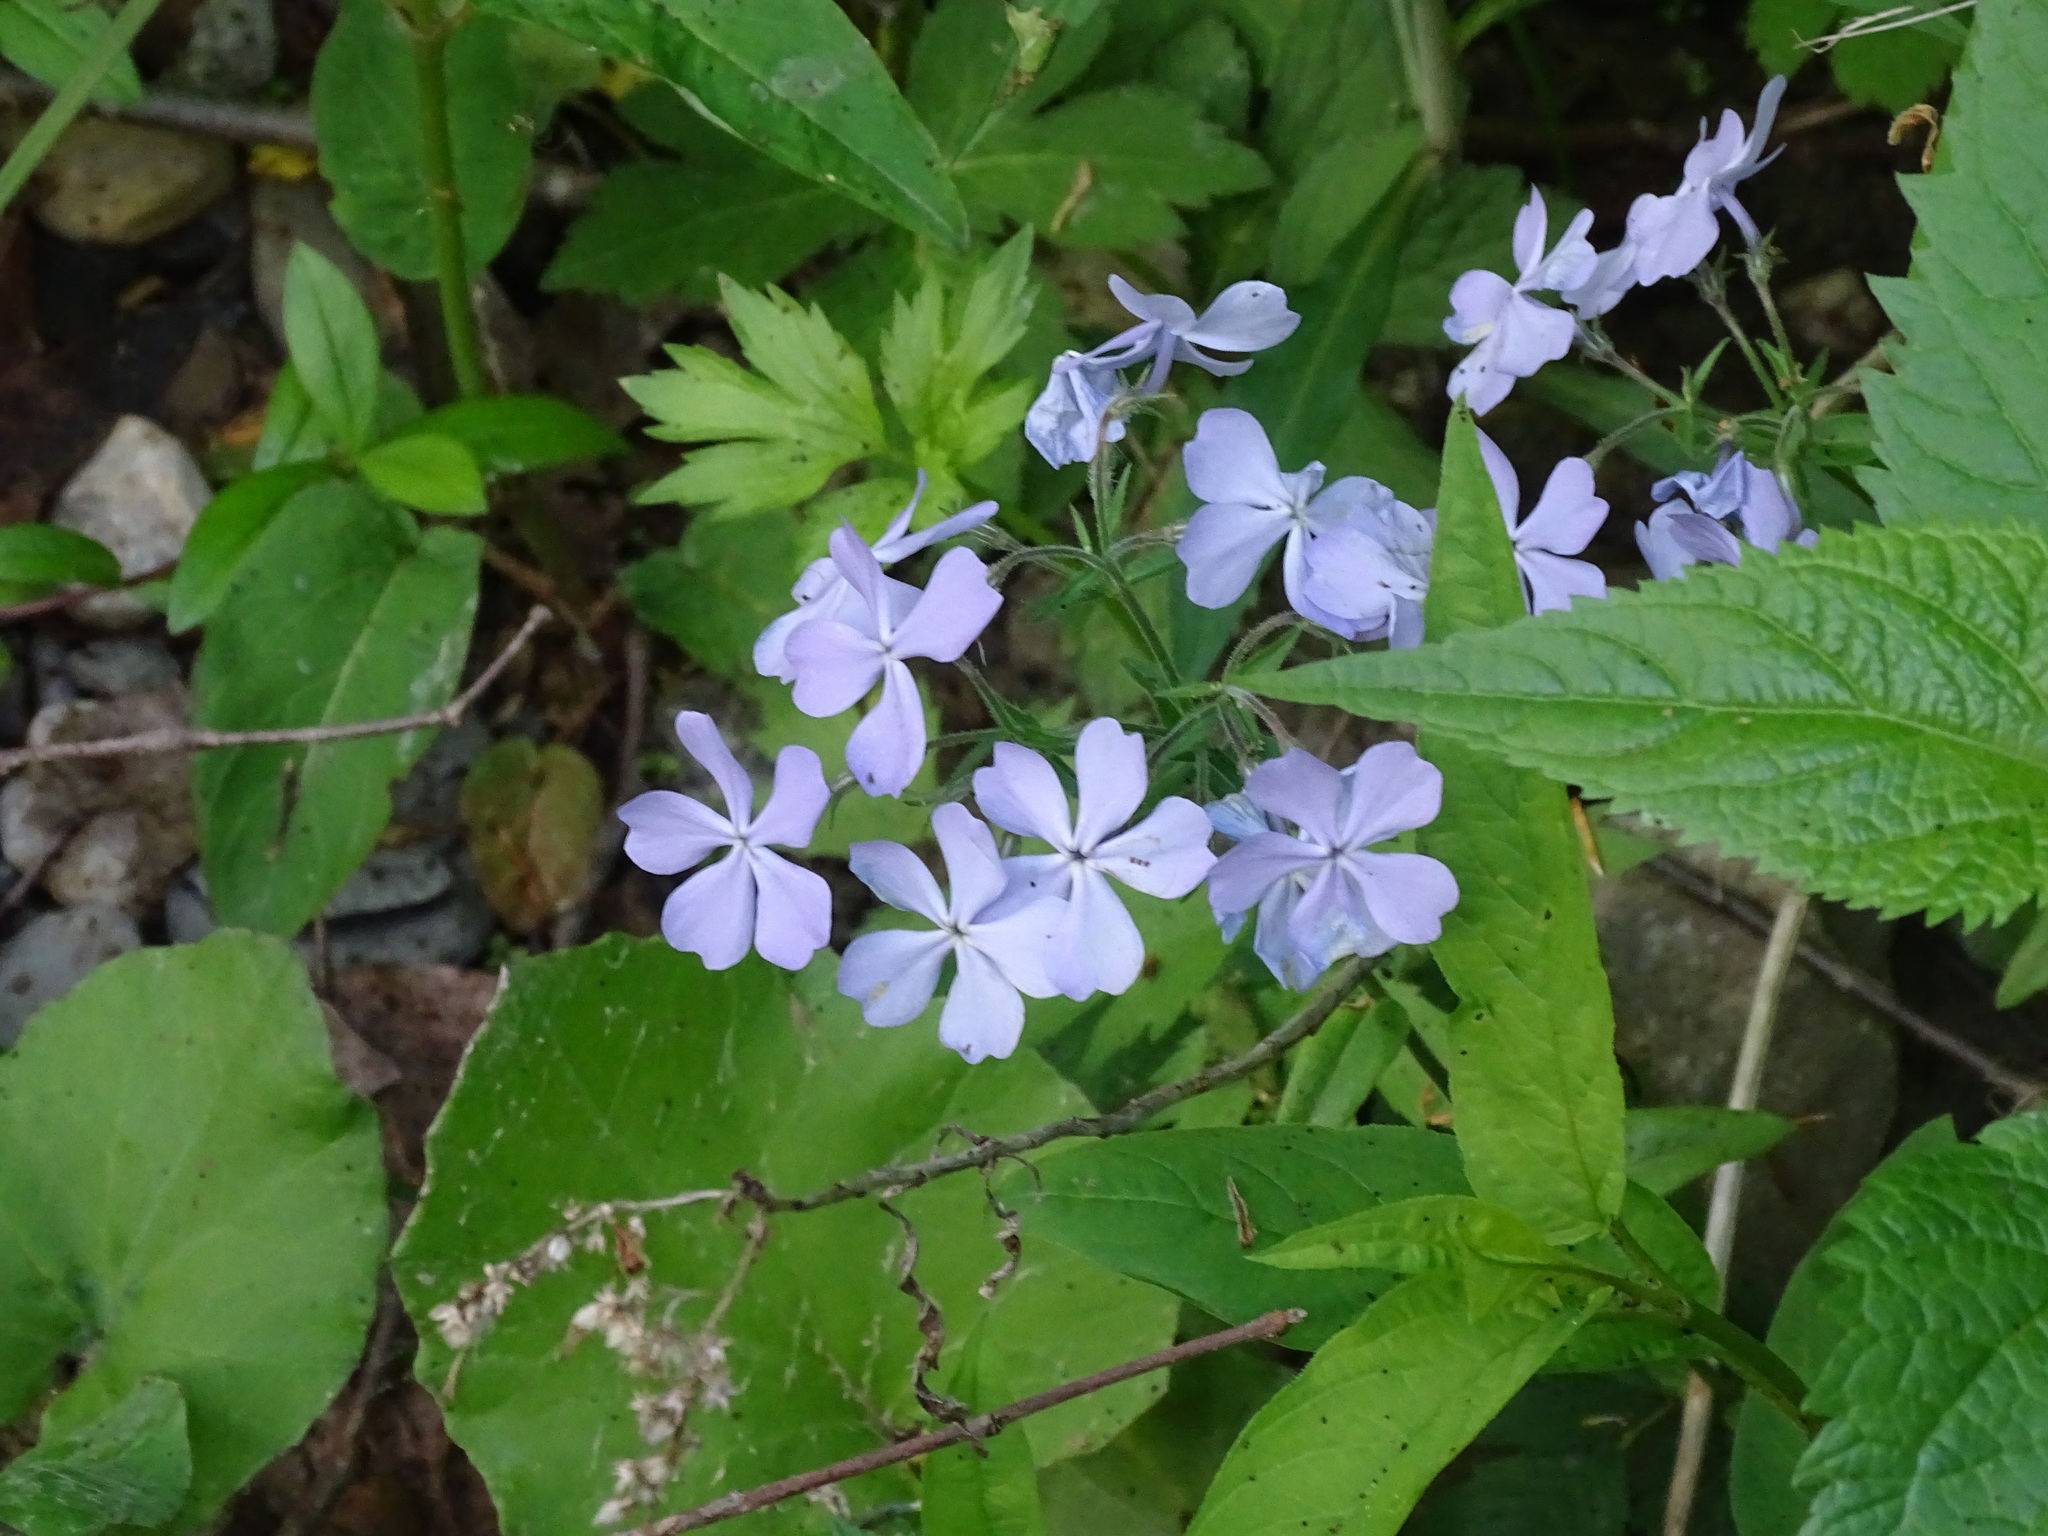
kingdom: Plantae
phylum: Tracheophyta
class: Magnoliopsida
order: Ericales
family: Polemoniaceae
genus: Phlox
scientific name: Phlox divaricata
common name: Blue phlox
